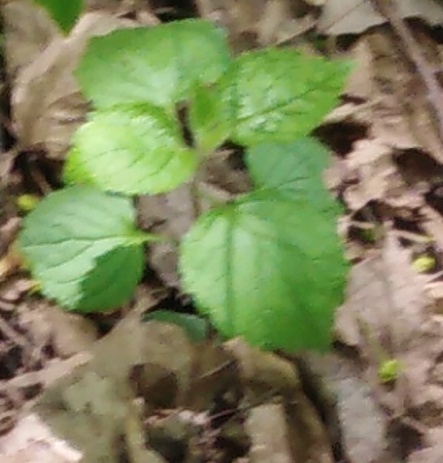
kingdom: Plantae
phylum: Tracheophyta
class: Magnoliopsida
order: Lamiales
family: Lamiaceae
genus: Lamium
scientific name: Lamium galeobdolon
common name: Yellow archangel
